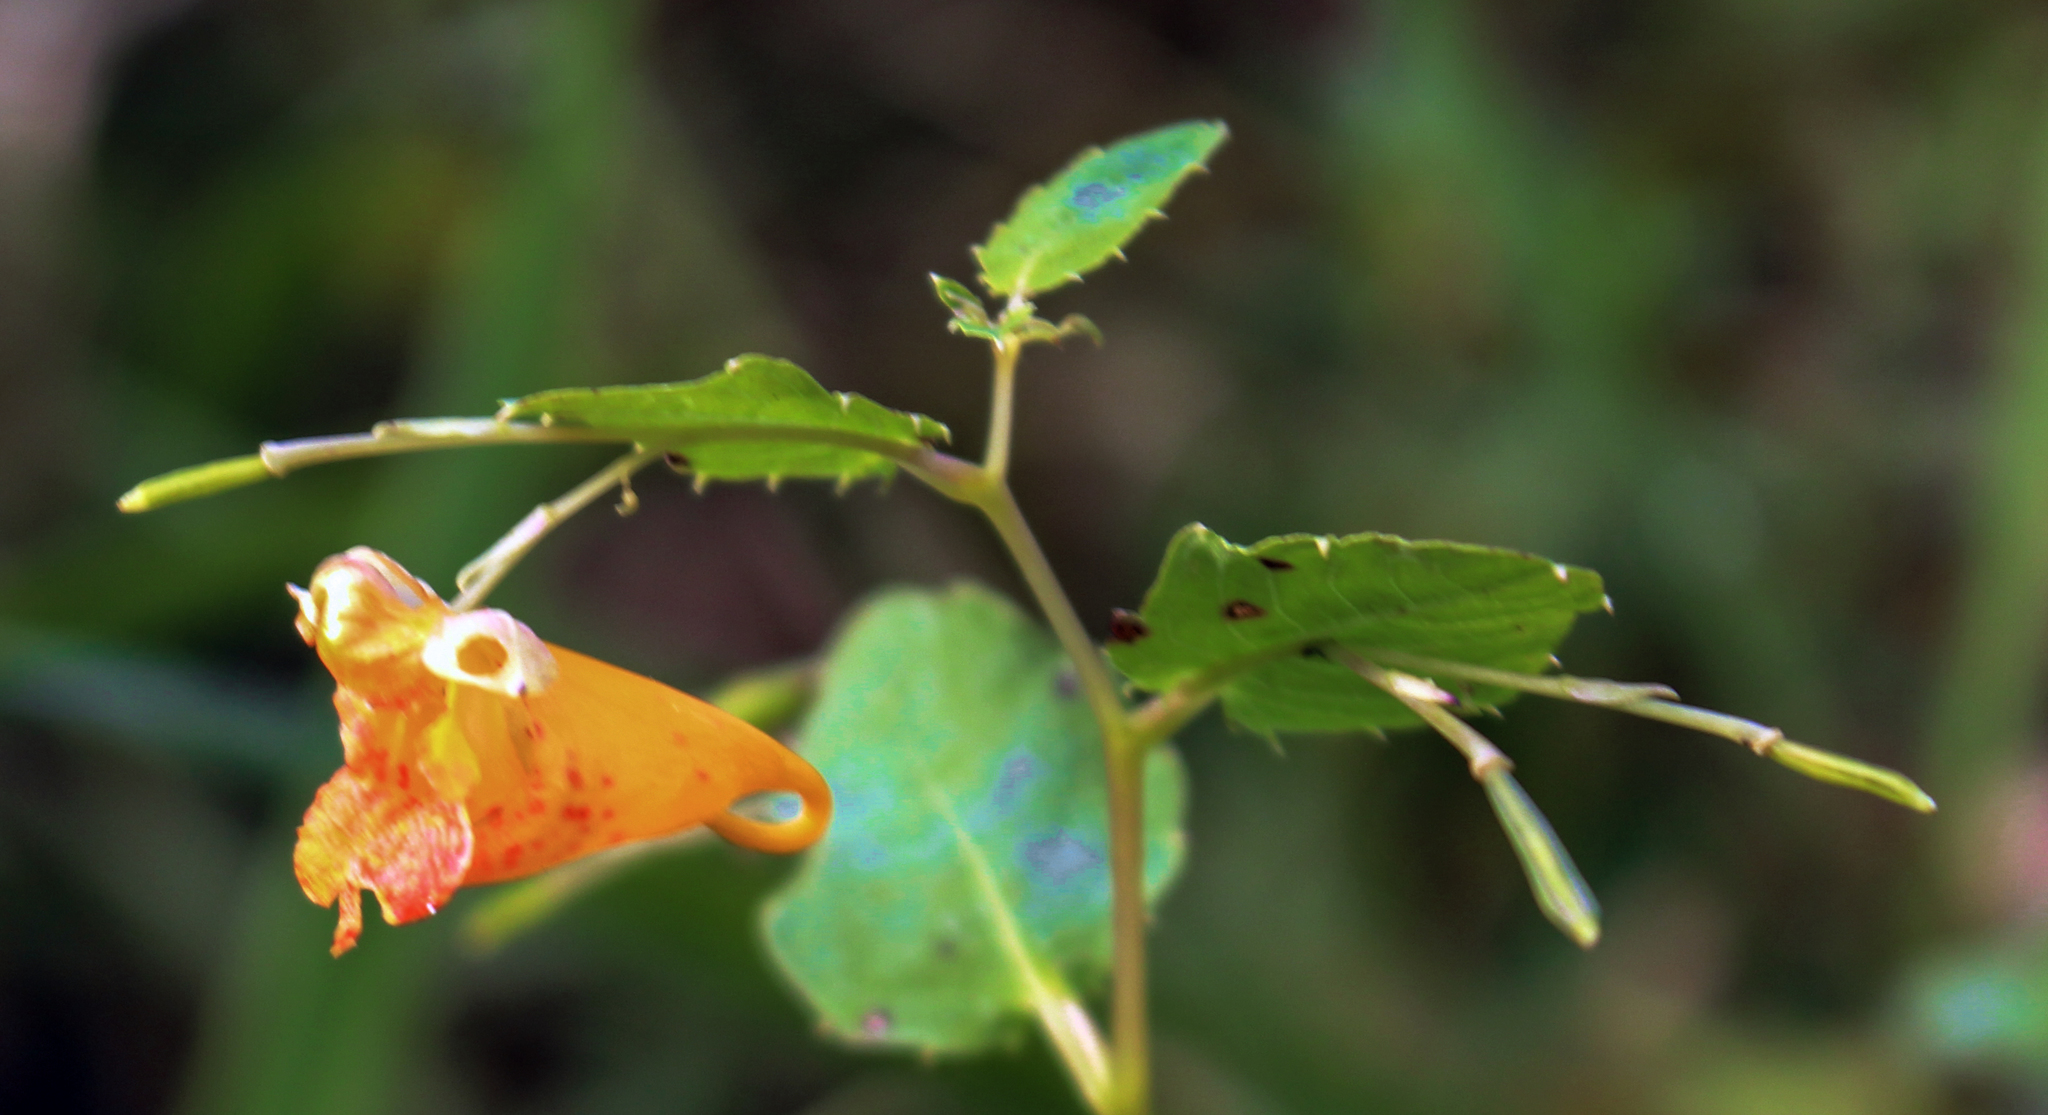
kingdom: Plantae
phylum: Tracheophyta
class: Magnoliopsida
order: Ericales
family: Balsaminaceae
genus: Impatiens
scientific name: Impatiens capensis
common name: Orange balsam
